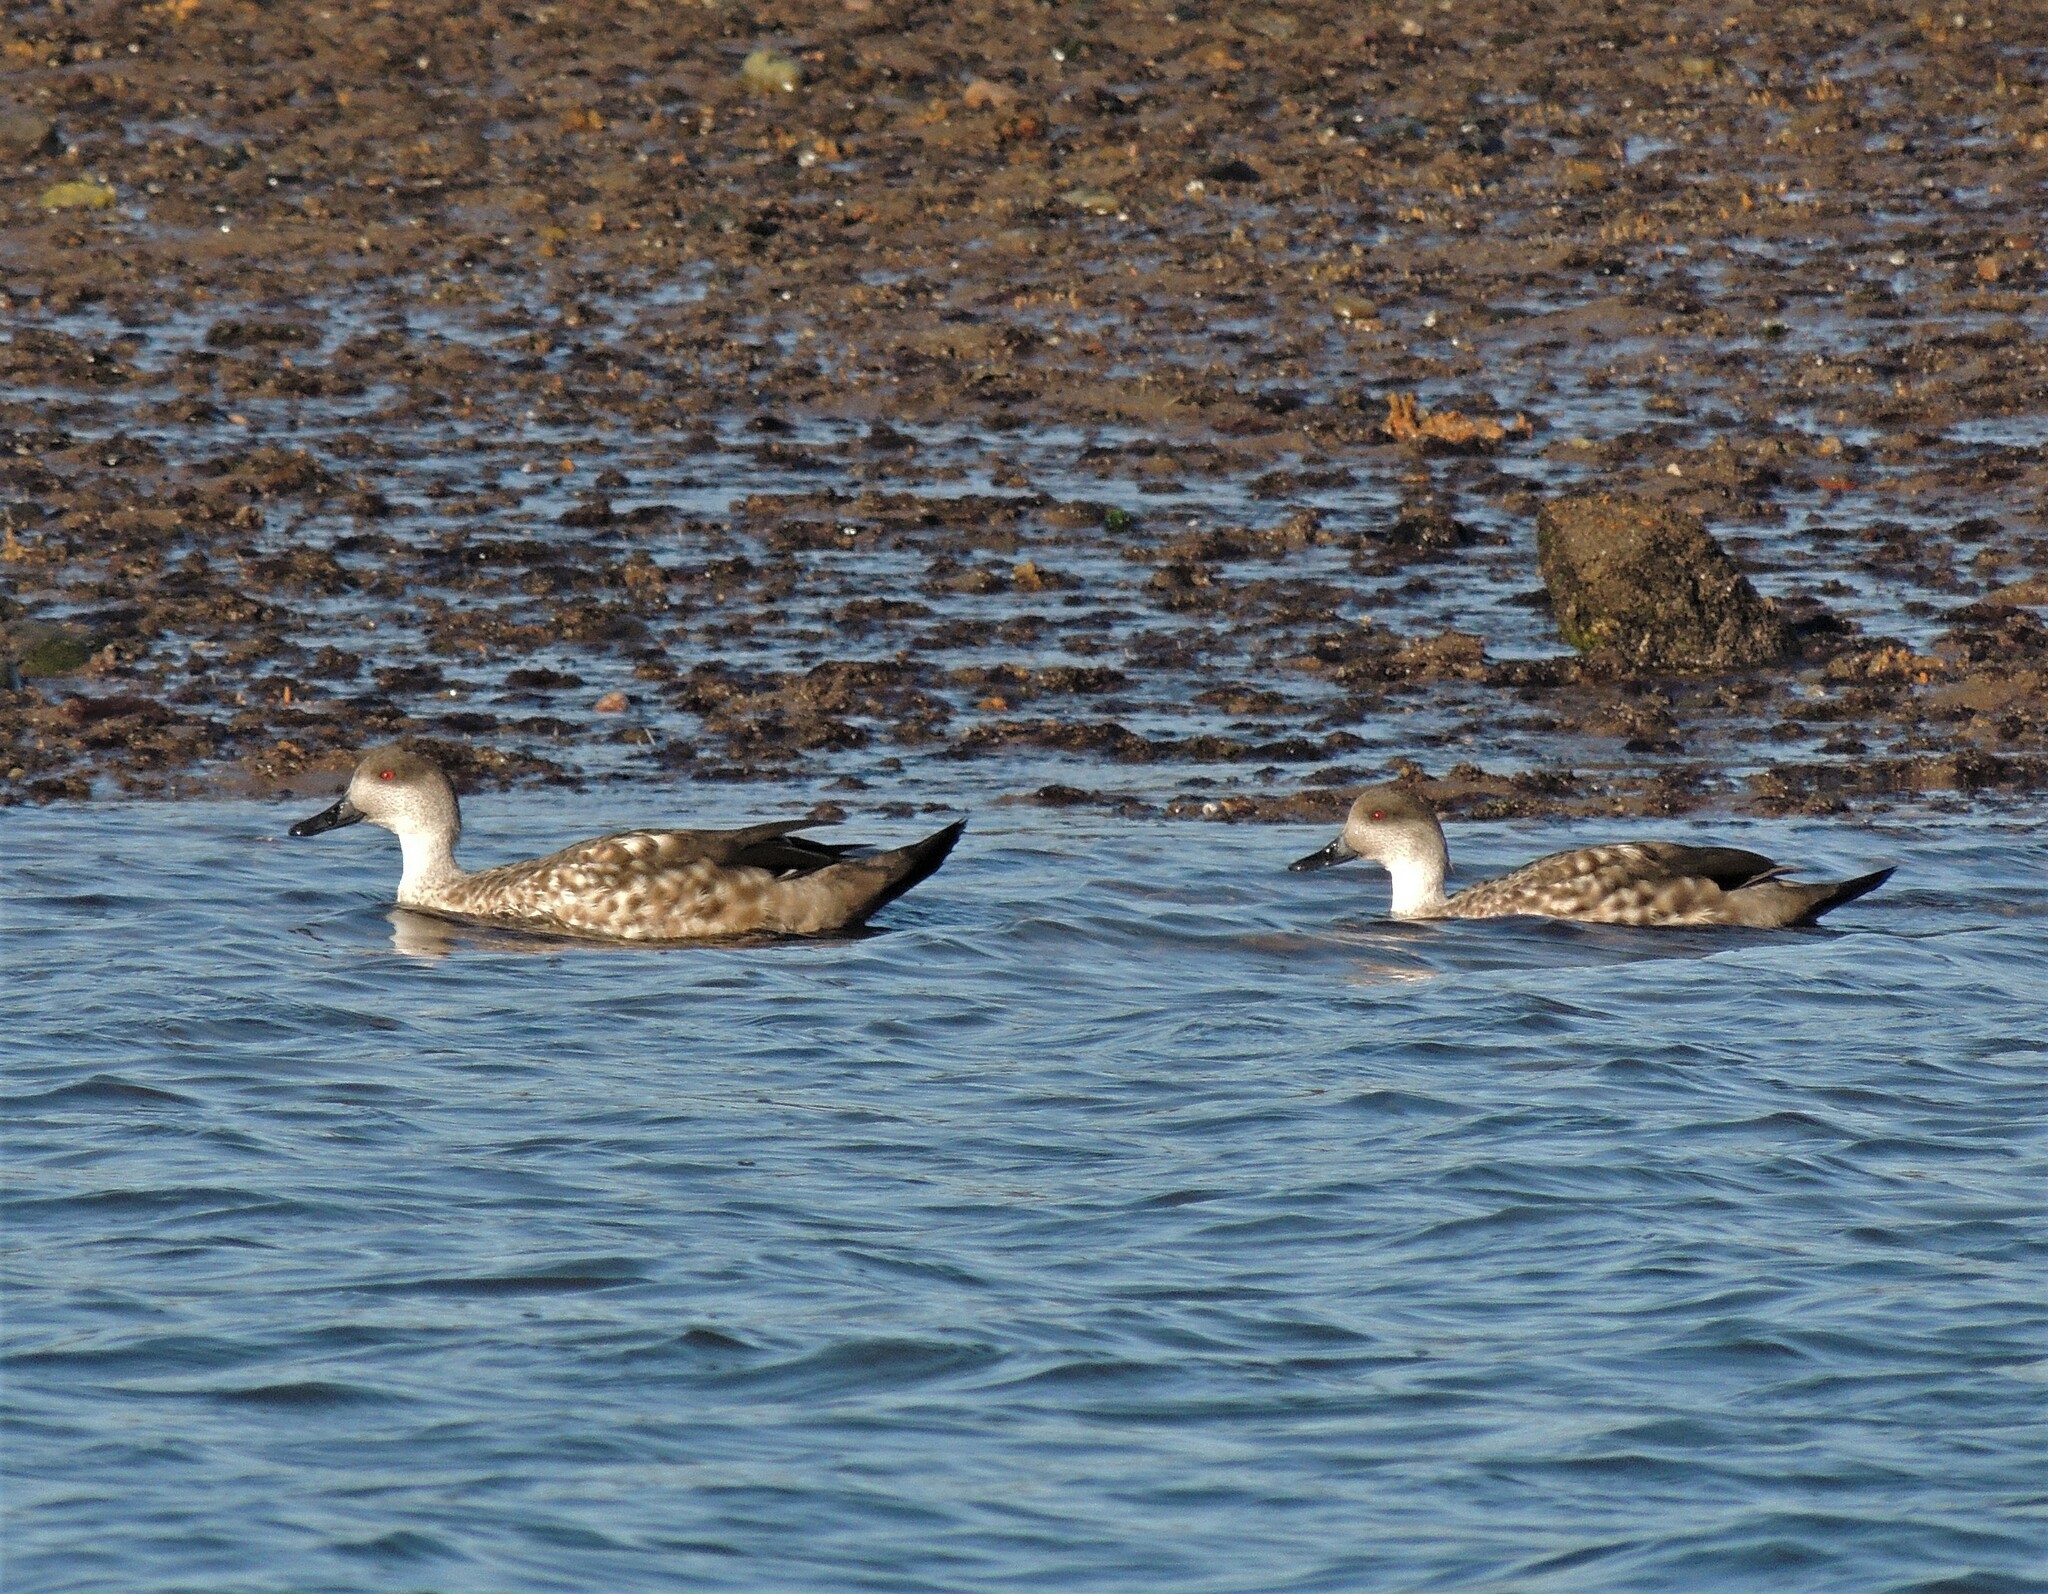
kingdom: Animalia
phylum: Chordata
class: Aves
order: Anseriformes
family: Anatidae
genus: Lophonetta
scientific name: Lophonetta specularioides
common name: Crested duck
